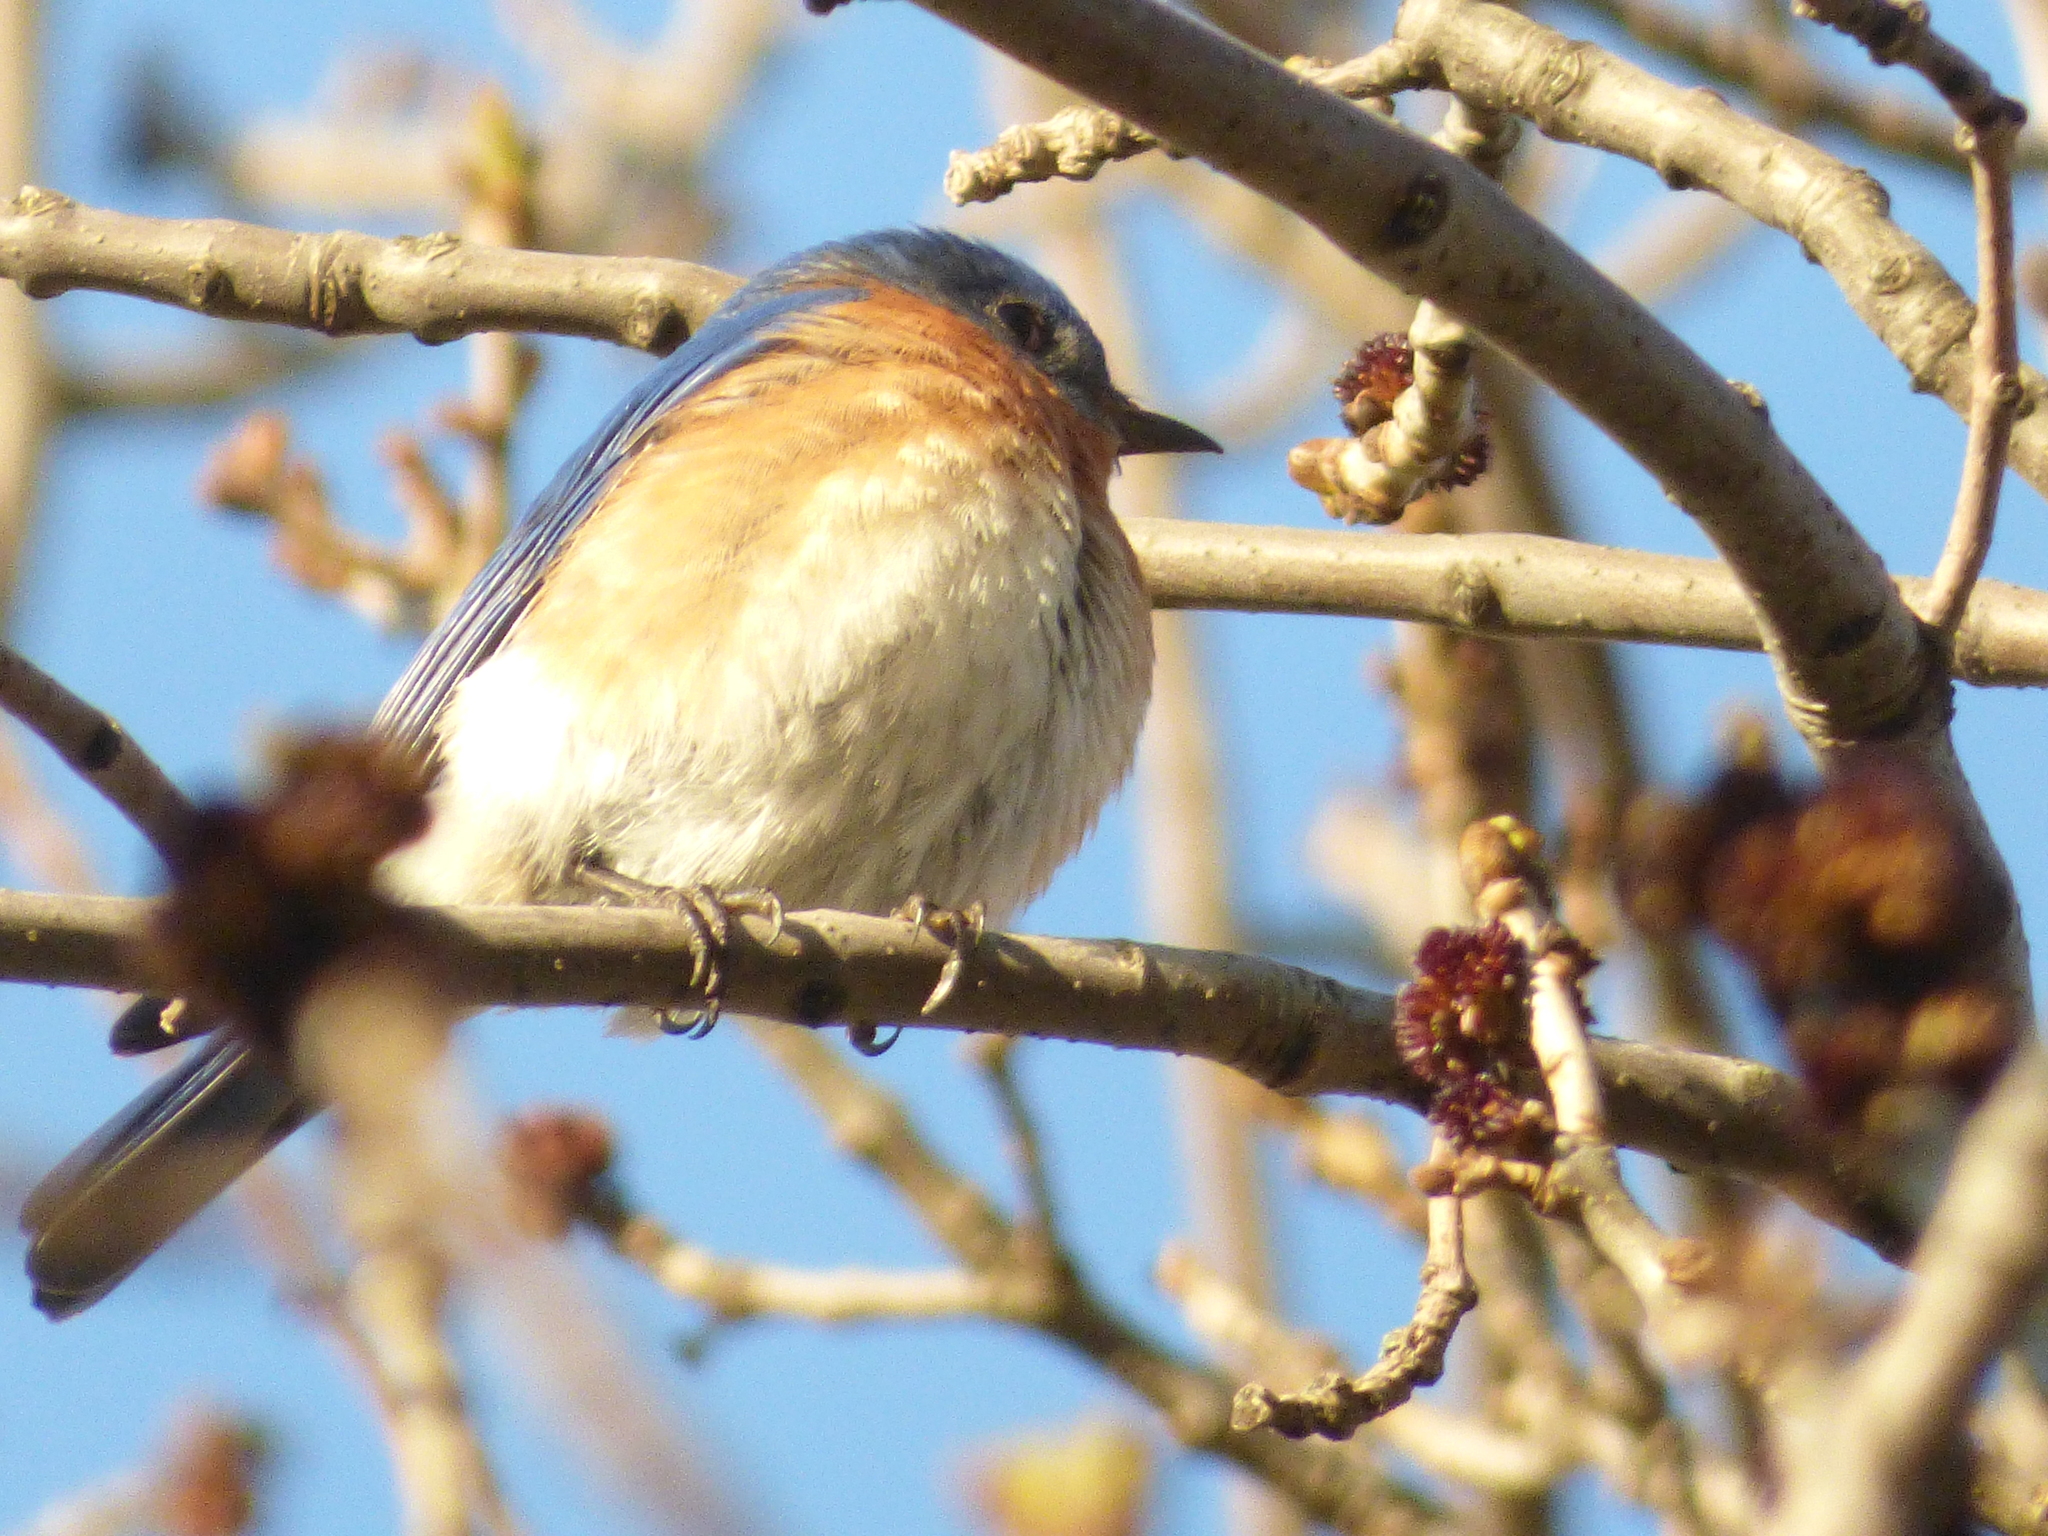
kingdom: Animalia
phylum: Chordata
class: Aves
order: Passeriformes
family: Turdidae
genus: Sialia
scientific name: Sialia sialis
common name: Eastern bluebird
